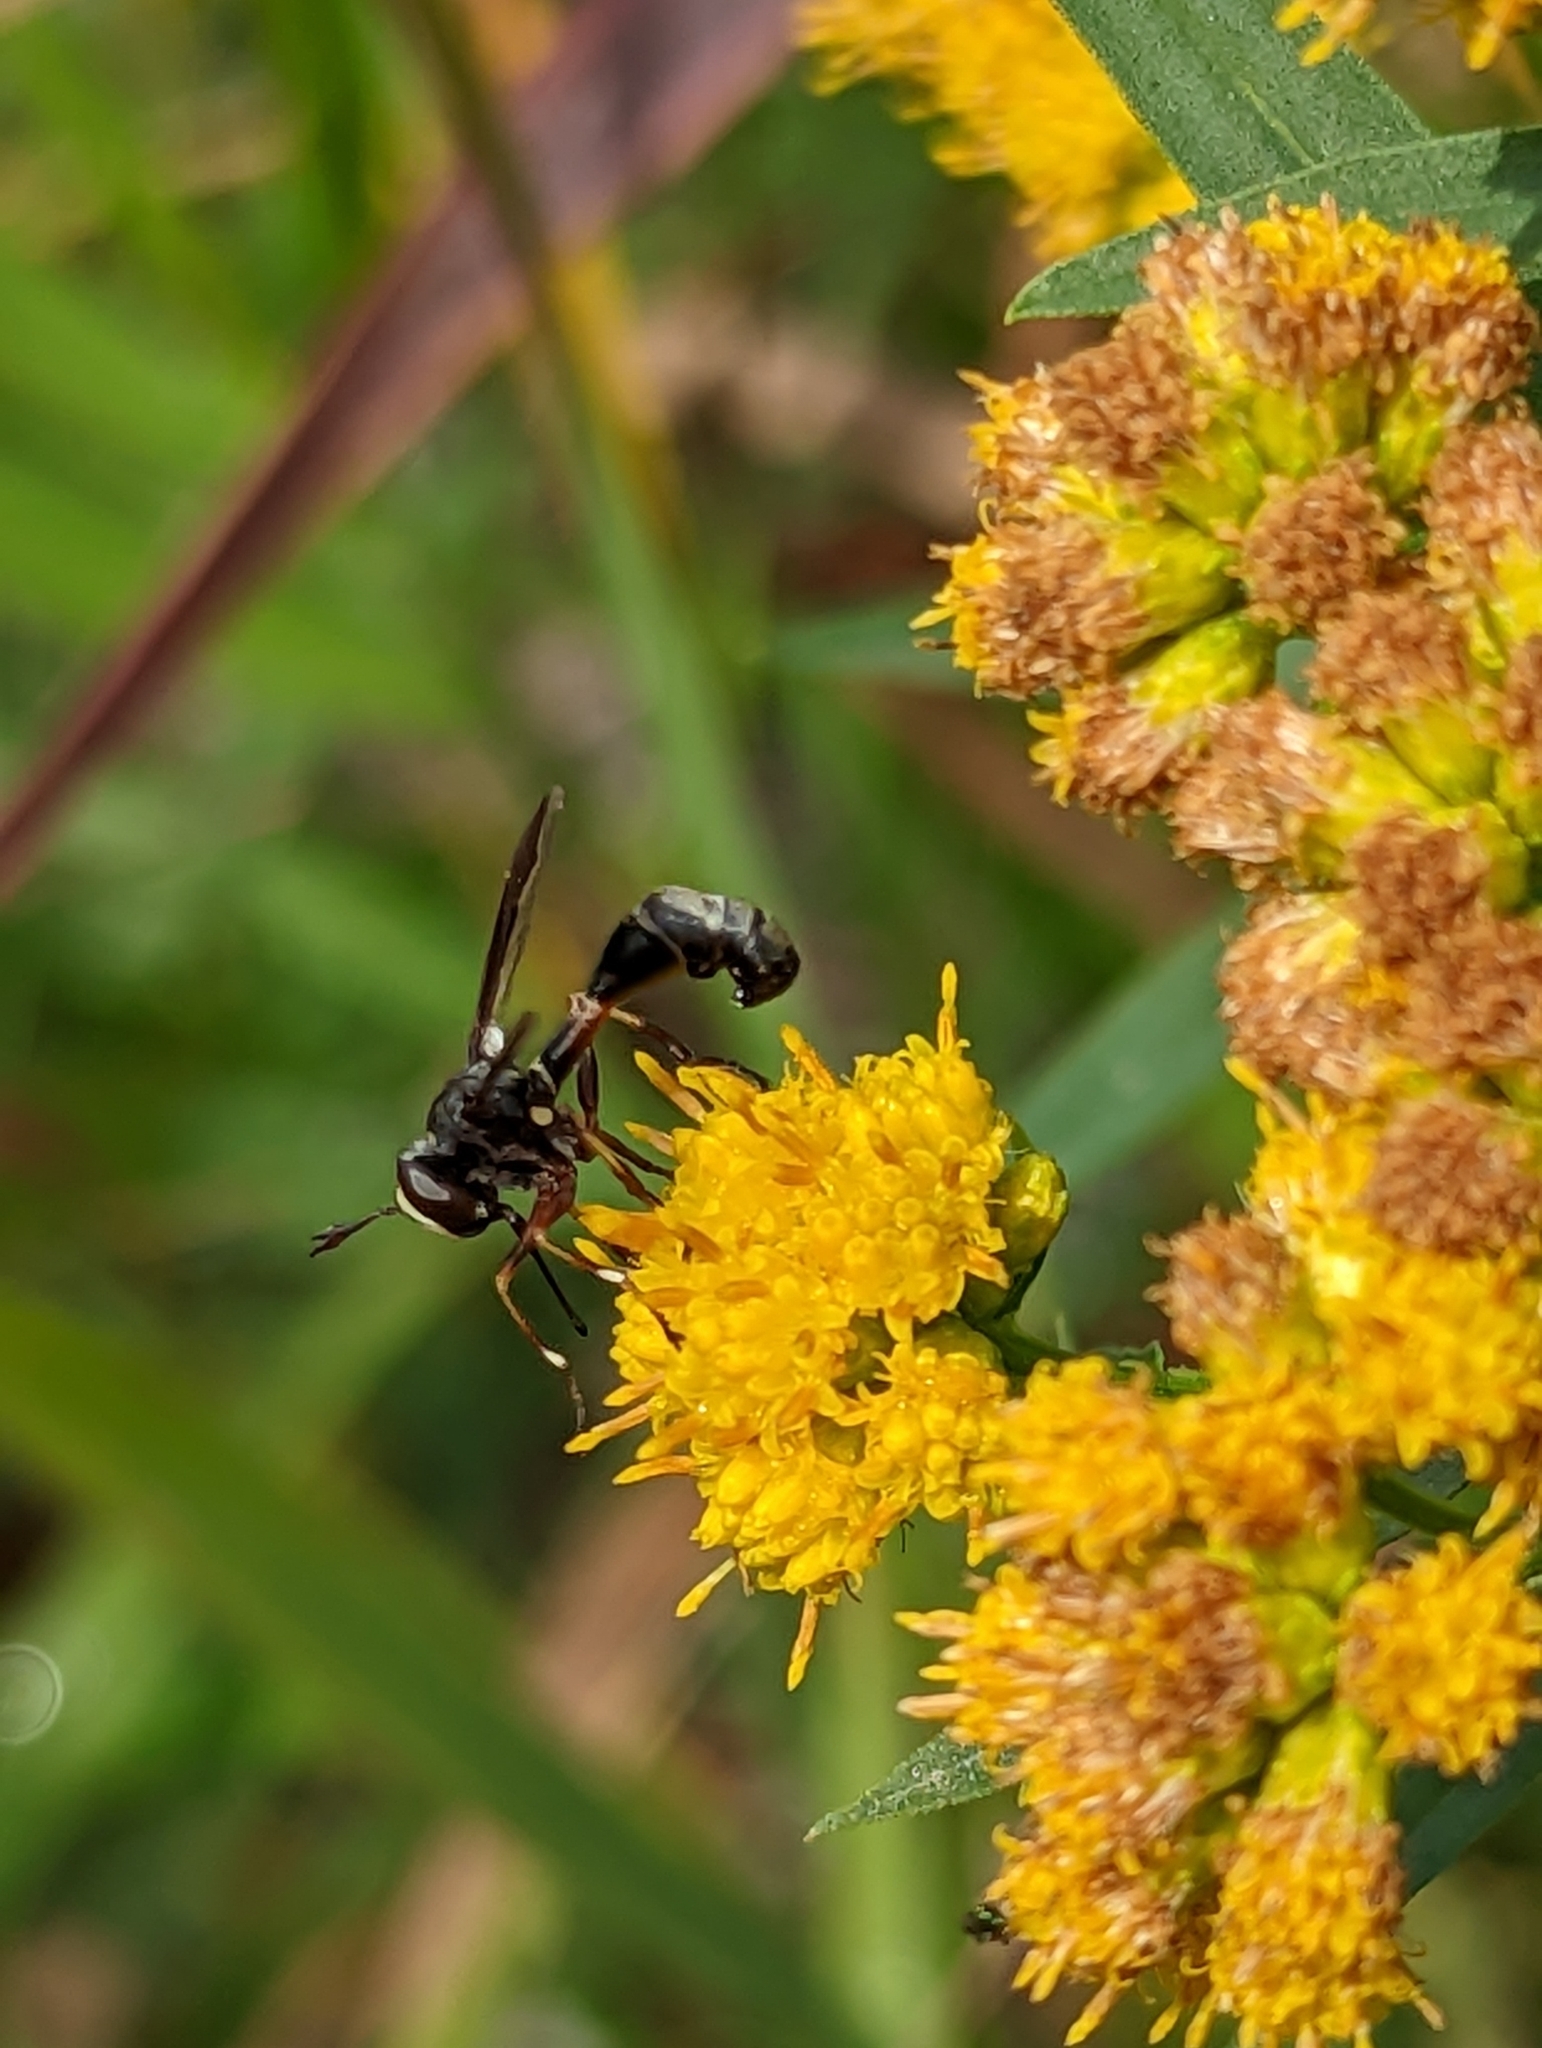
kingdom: Animalia
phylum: Arthropoda
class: Insecta
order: Diptera
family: Conopidae
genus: Physocephala
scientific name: Physocephala furcillata
